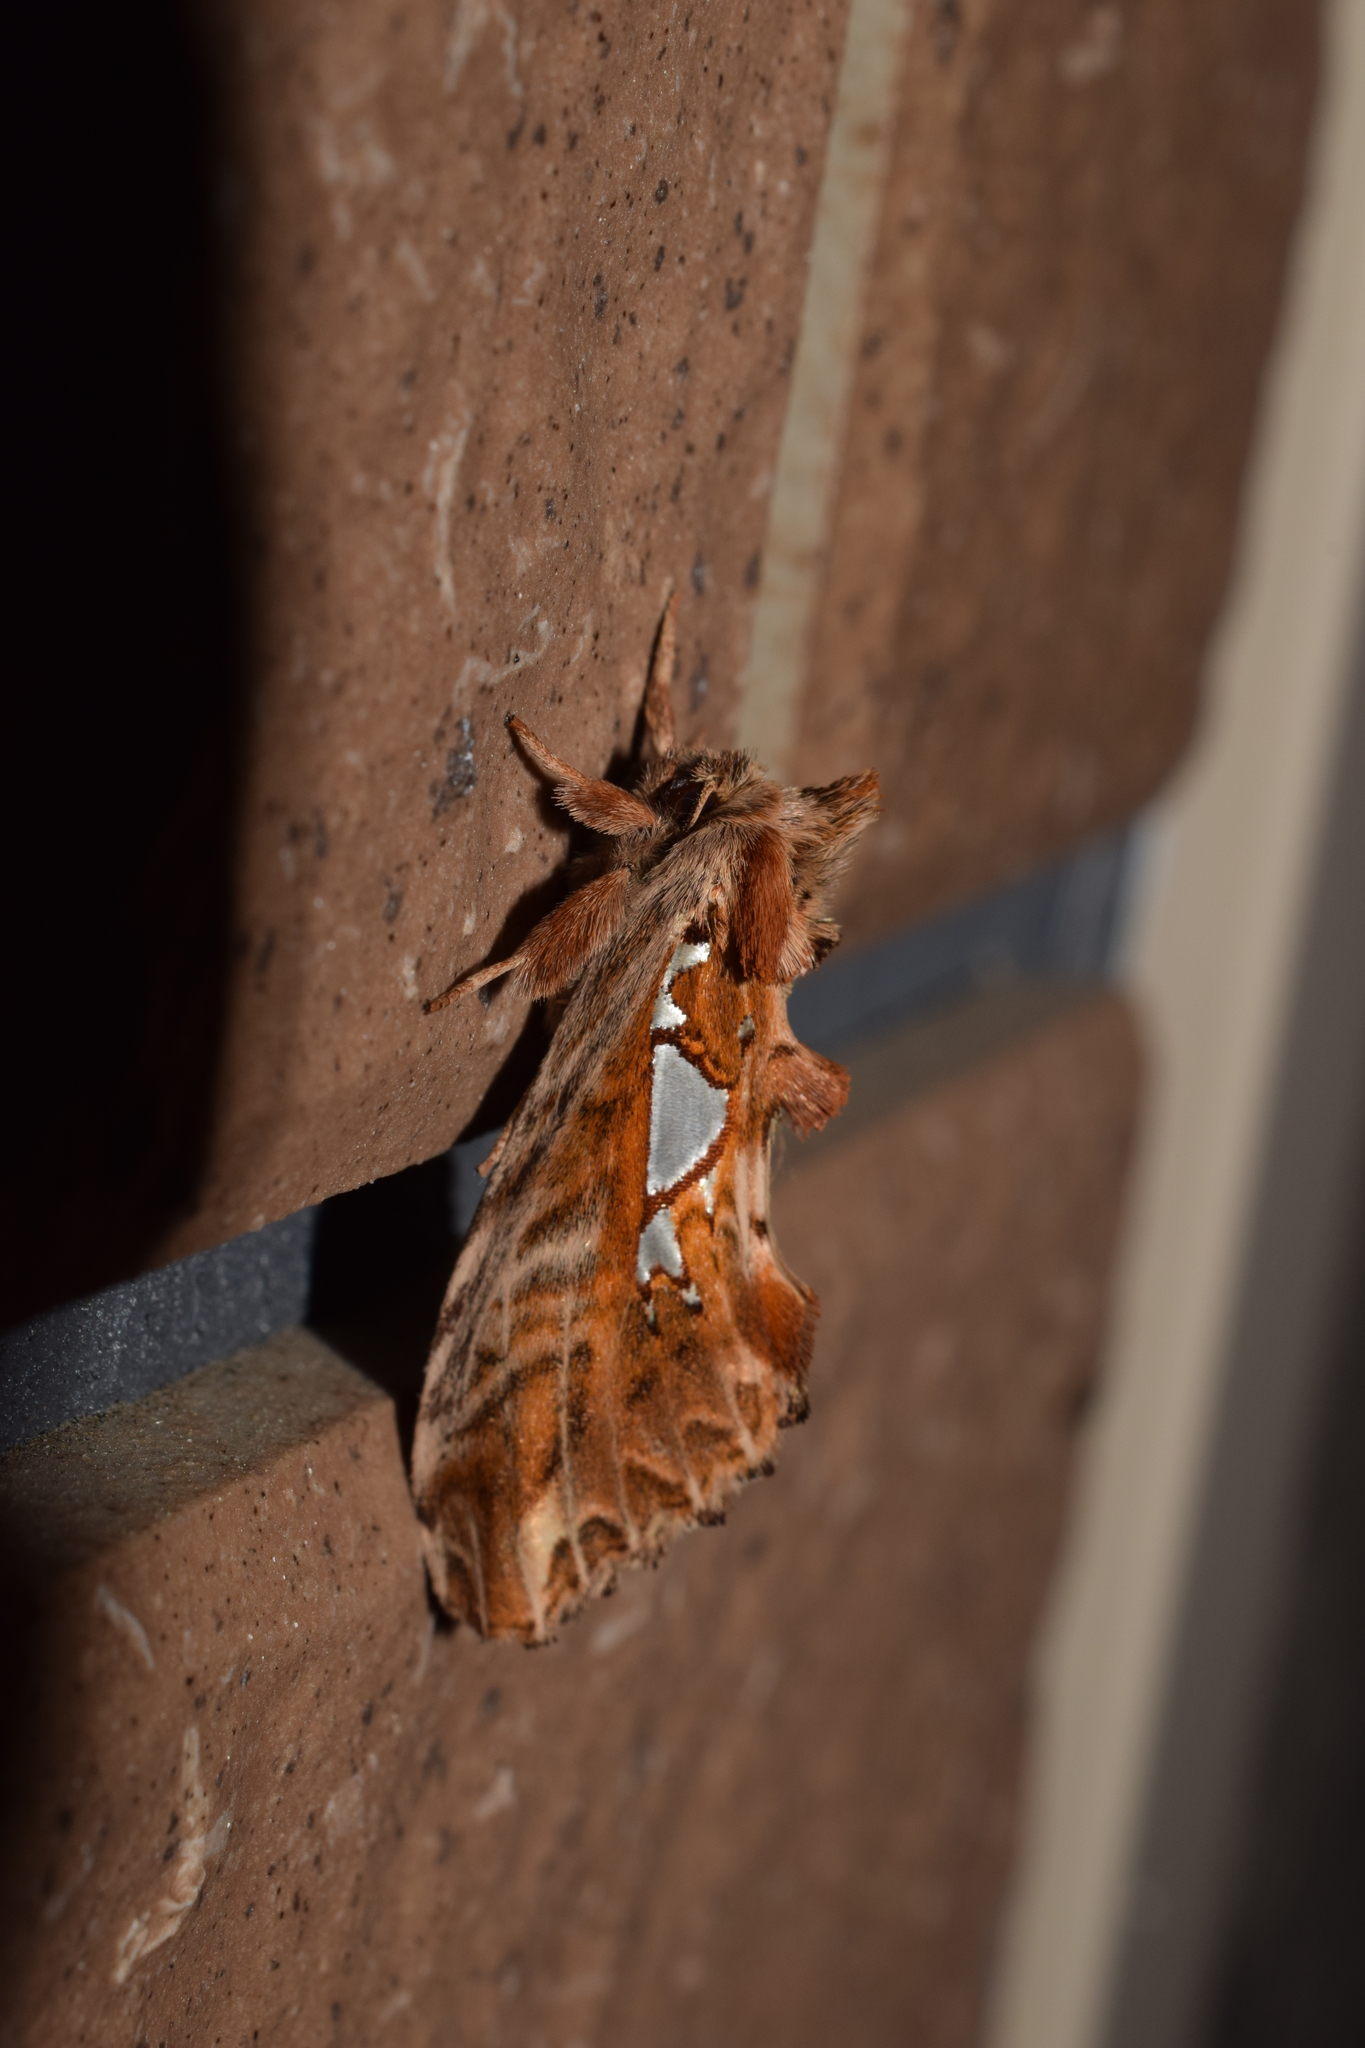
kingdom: Animalia
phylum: Arthropoda
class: Insecta
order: Lepidoptera
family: Notodontidae
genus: Spatalia
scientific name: Spatalia doerriesi
